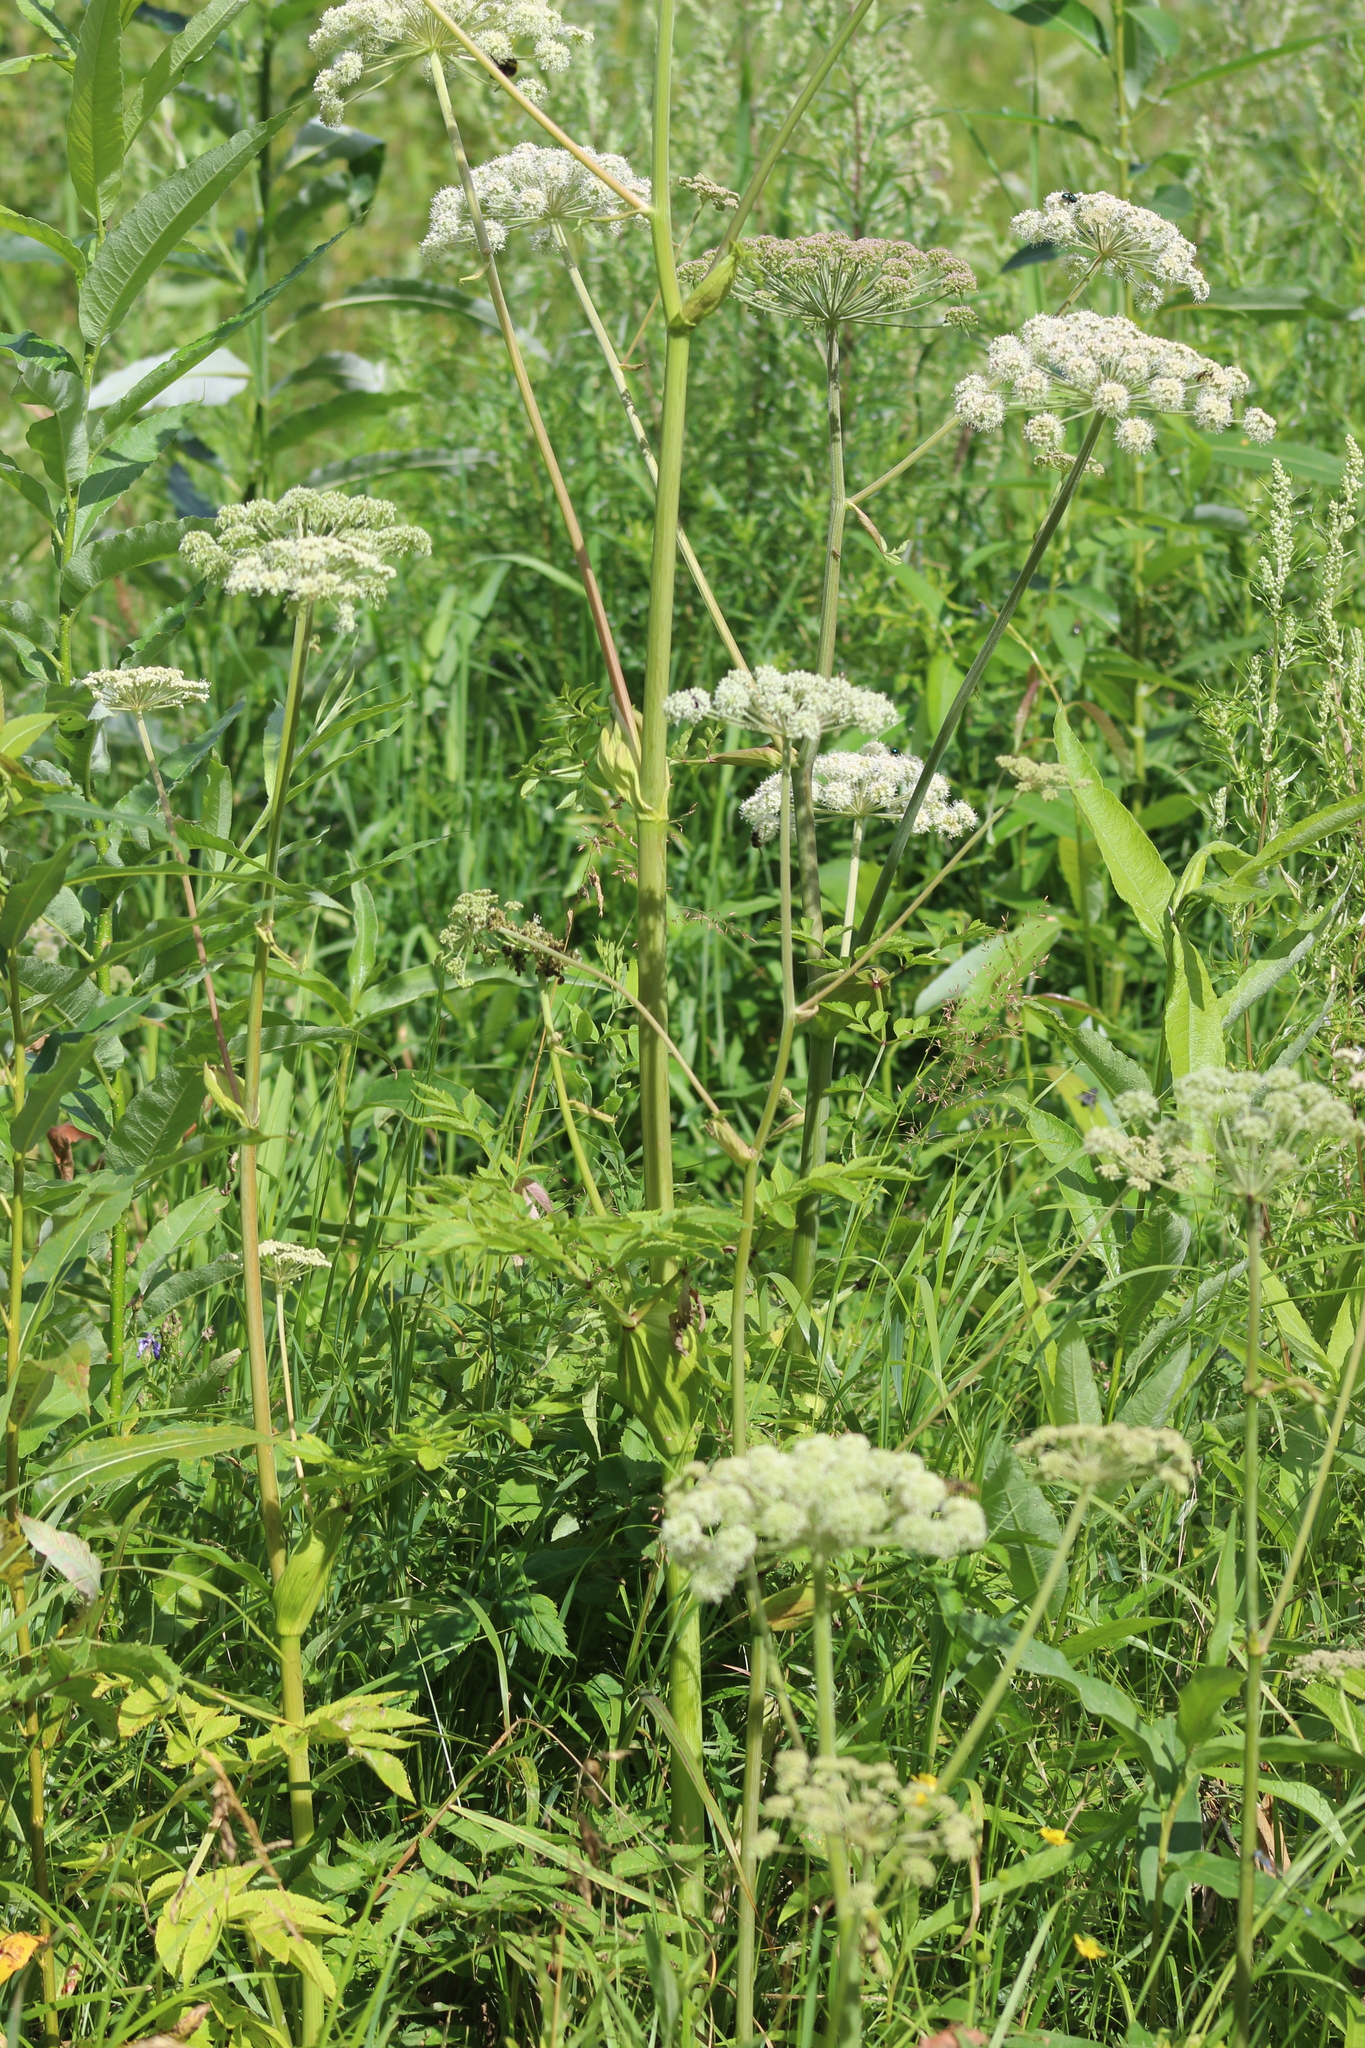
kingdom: Plantae
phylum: Tracheophyta
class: Magnoliopsida
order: Apiales
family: Apiaceae
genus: Angelica
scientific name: Angelica sylvestris
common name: Wild angelica
